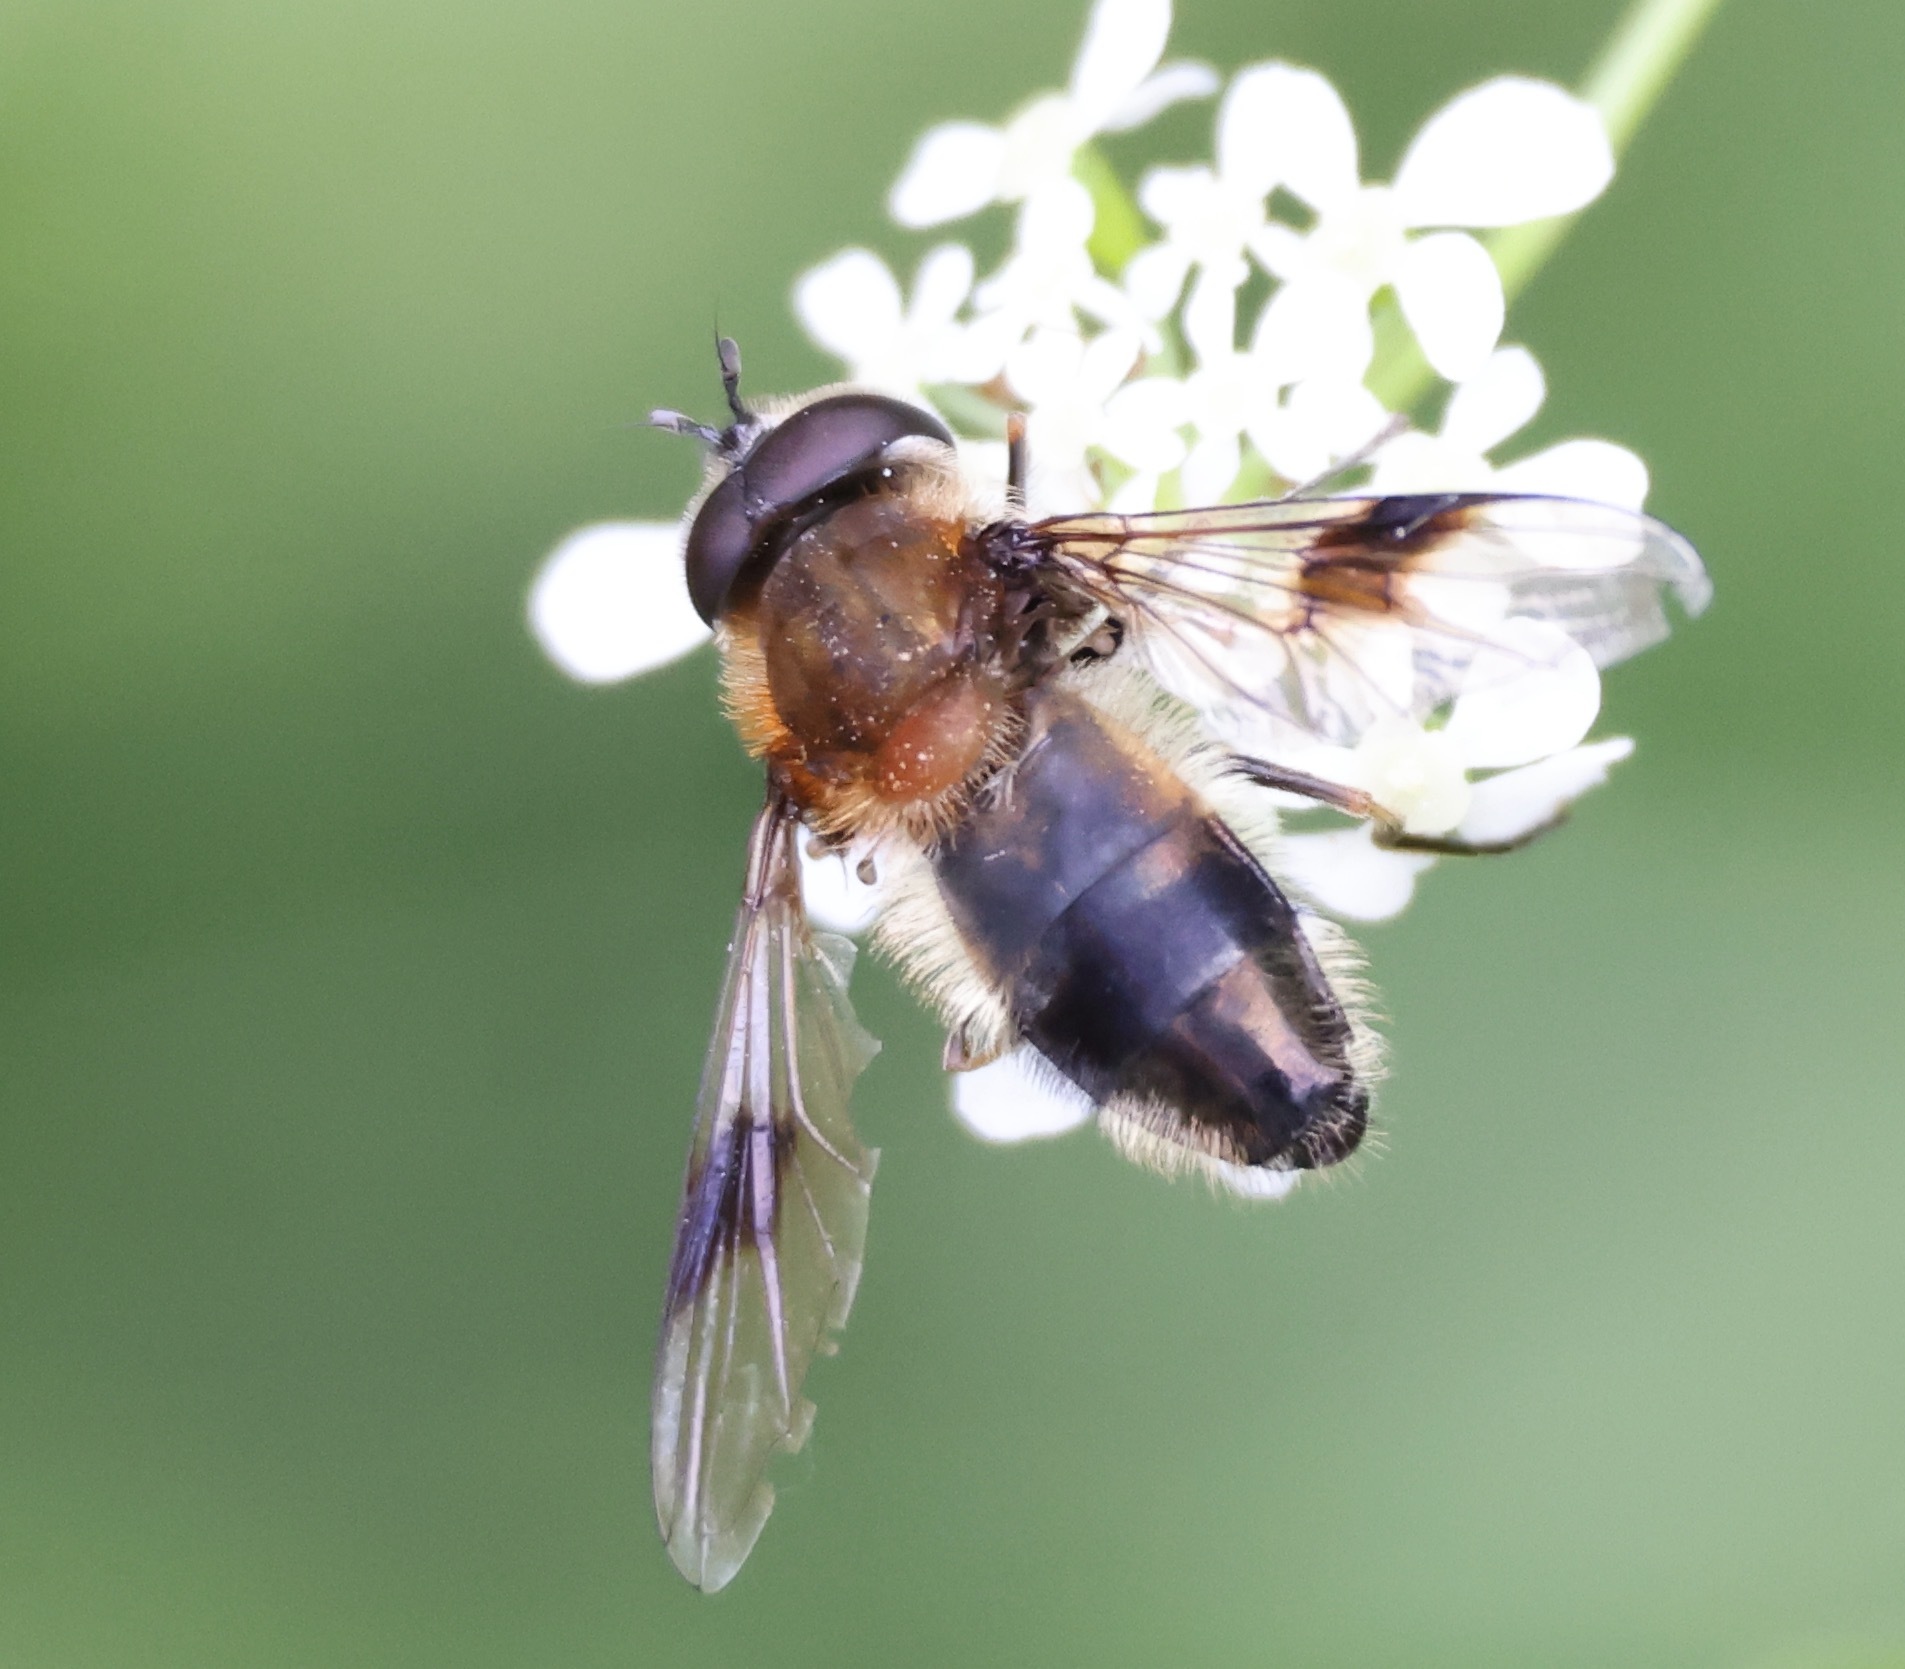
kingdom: Animalia
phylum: Arthropoda
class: Insecta
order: Diptera
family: Syrphidae
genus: Leucozona
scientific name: Leucozona lucorum
